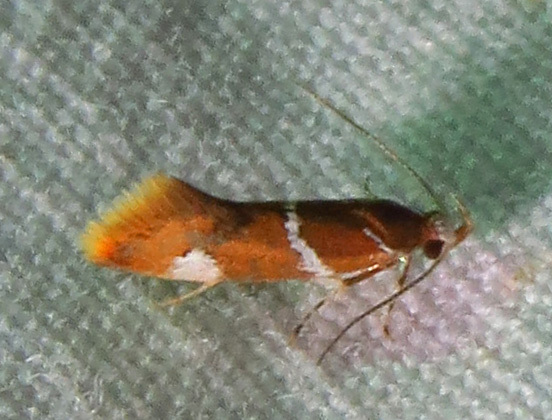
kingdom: Animalia
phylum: Arthropoda
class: Insecta
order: Lepidoptera
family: Oecophoridae
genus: Promalactis
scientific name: Promalactis suzukiella
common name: Moth
